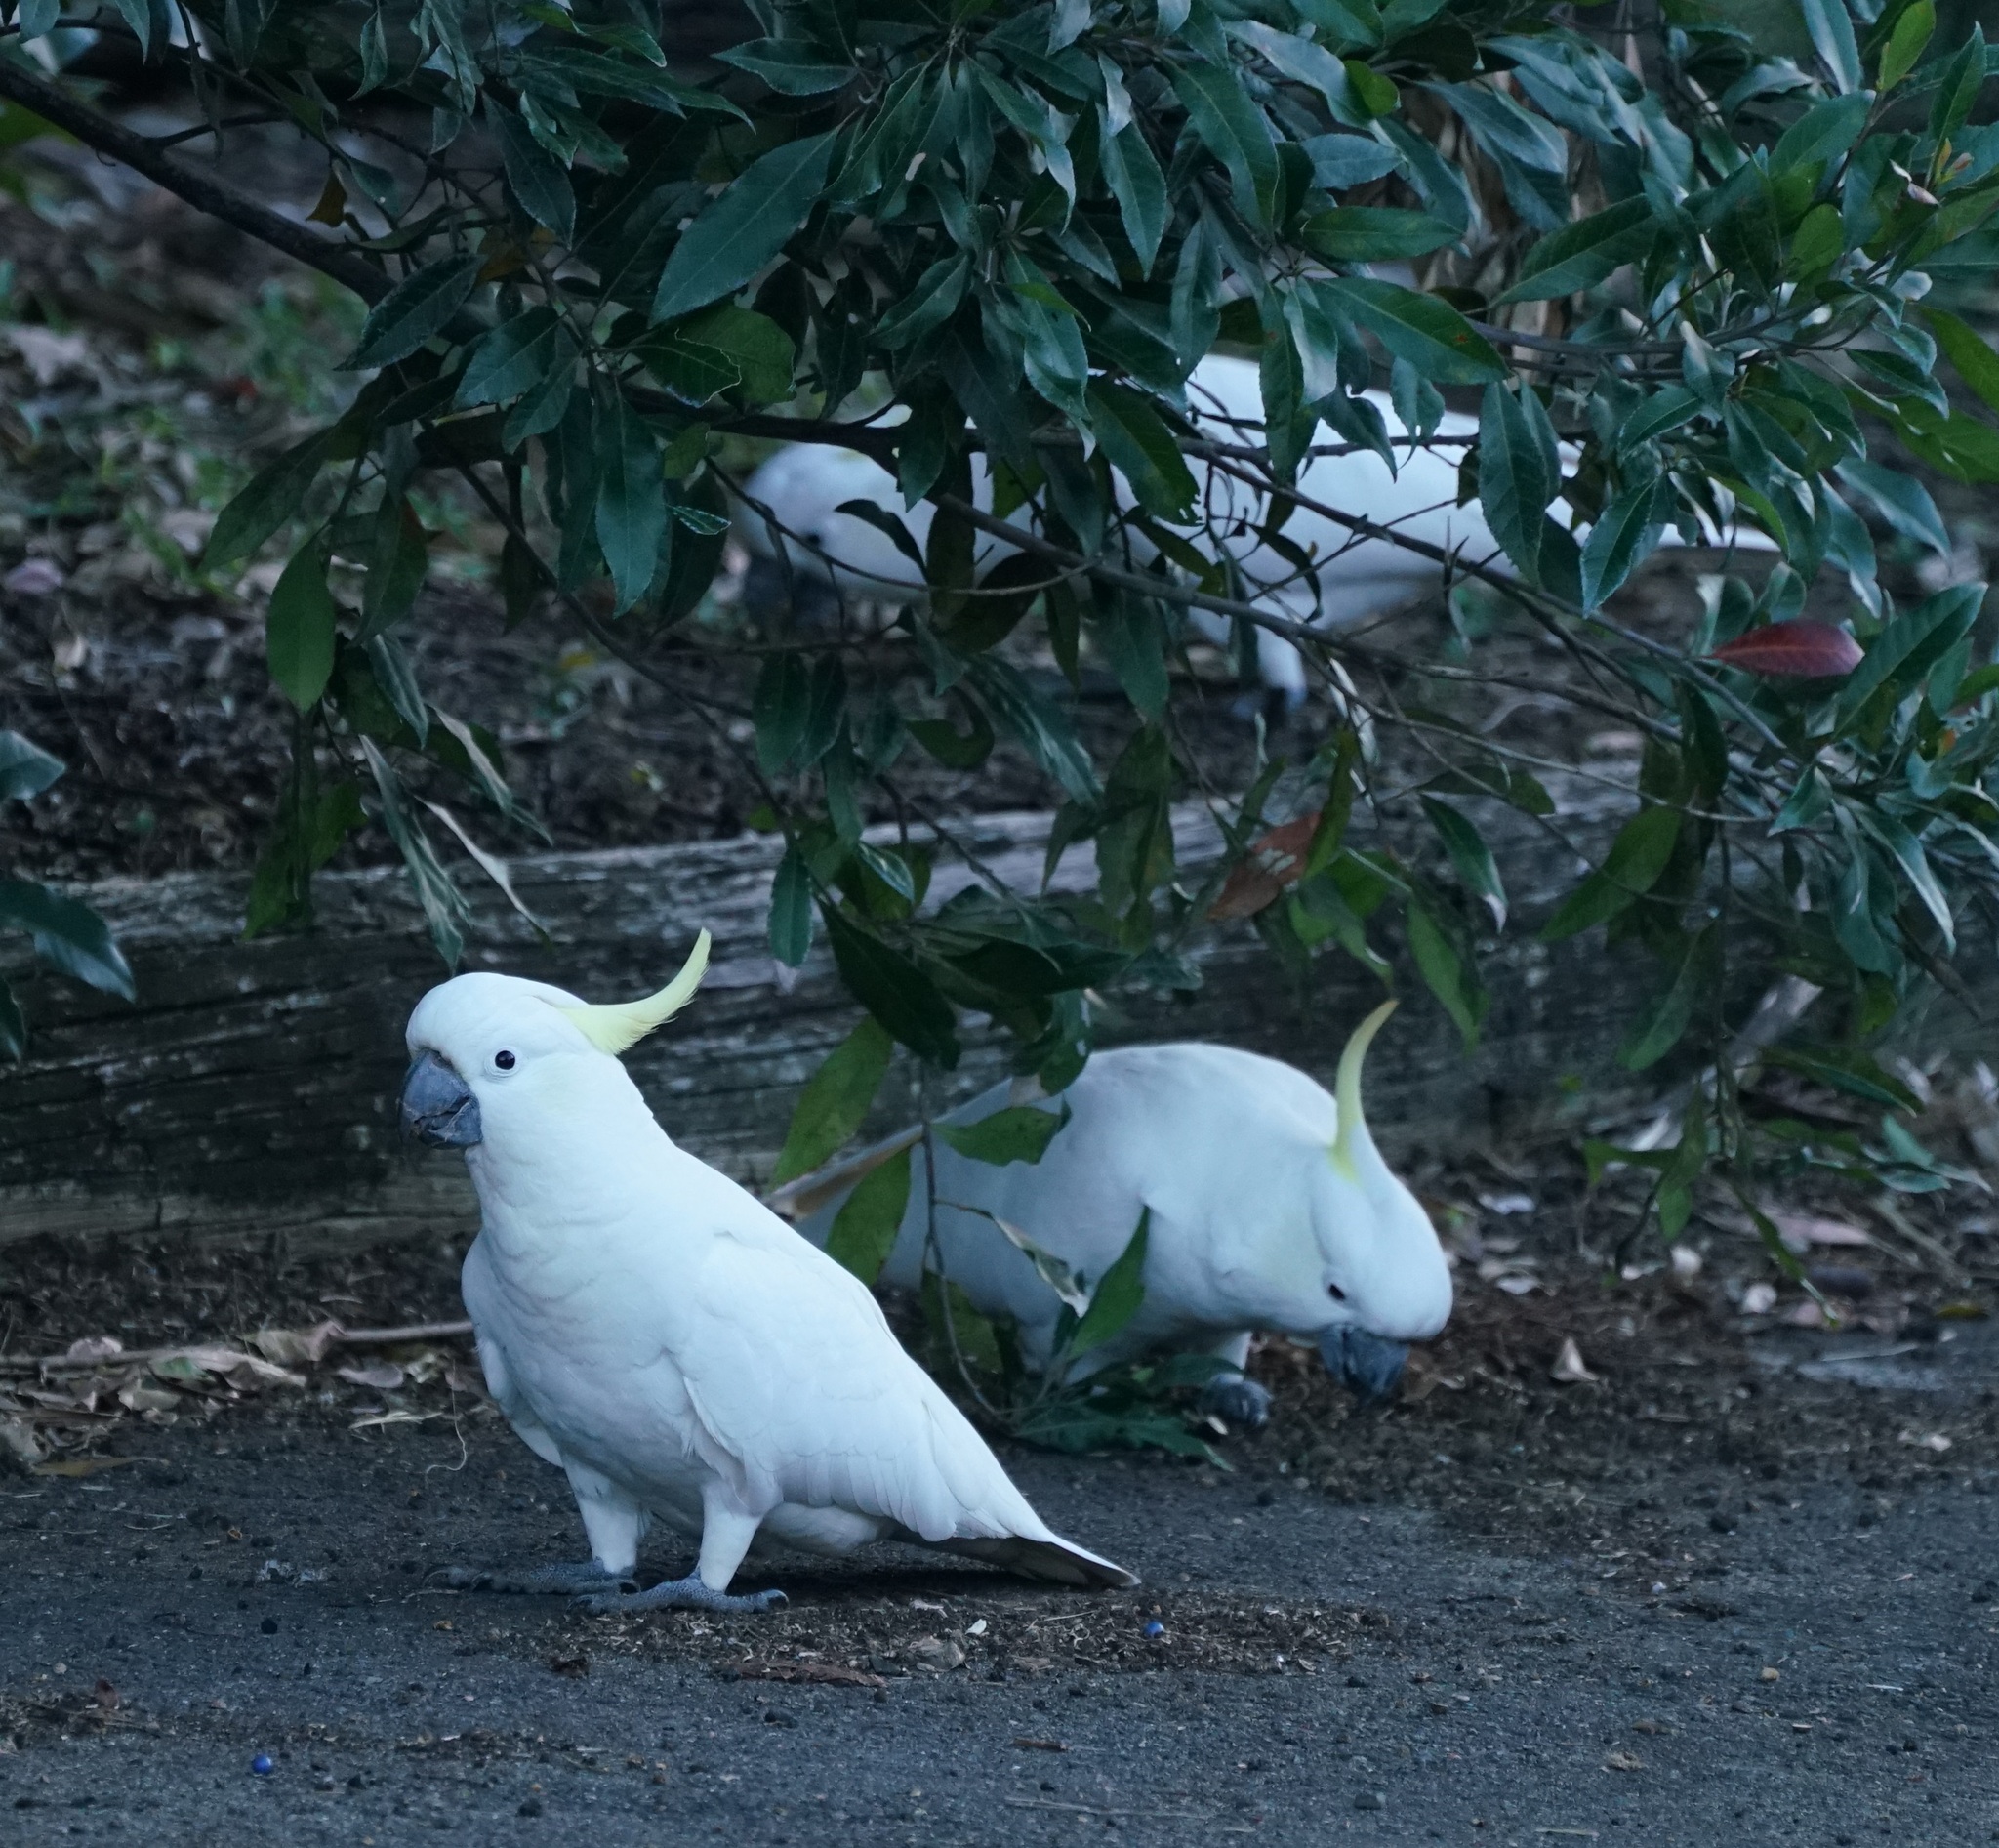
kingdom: Animalia
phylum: Chordata
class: Aves
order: Psittaciformes
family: Psittacidae
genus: Cacatua
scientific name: Cacatua galerita
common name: Sulphur-crested cockatoo
